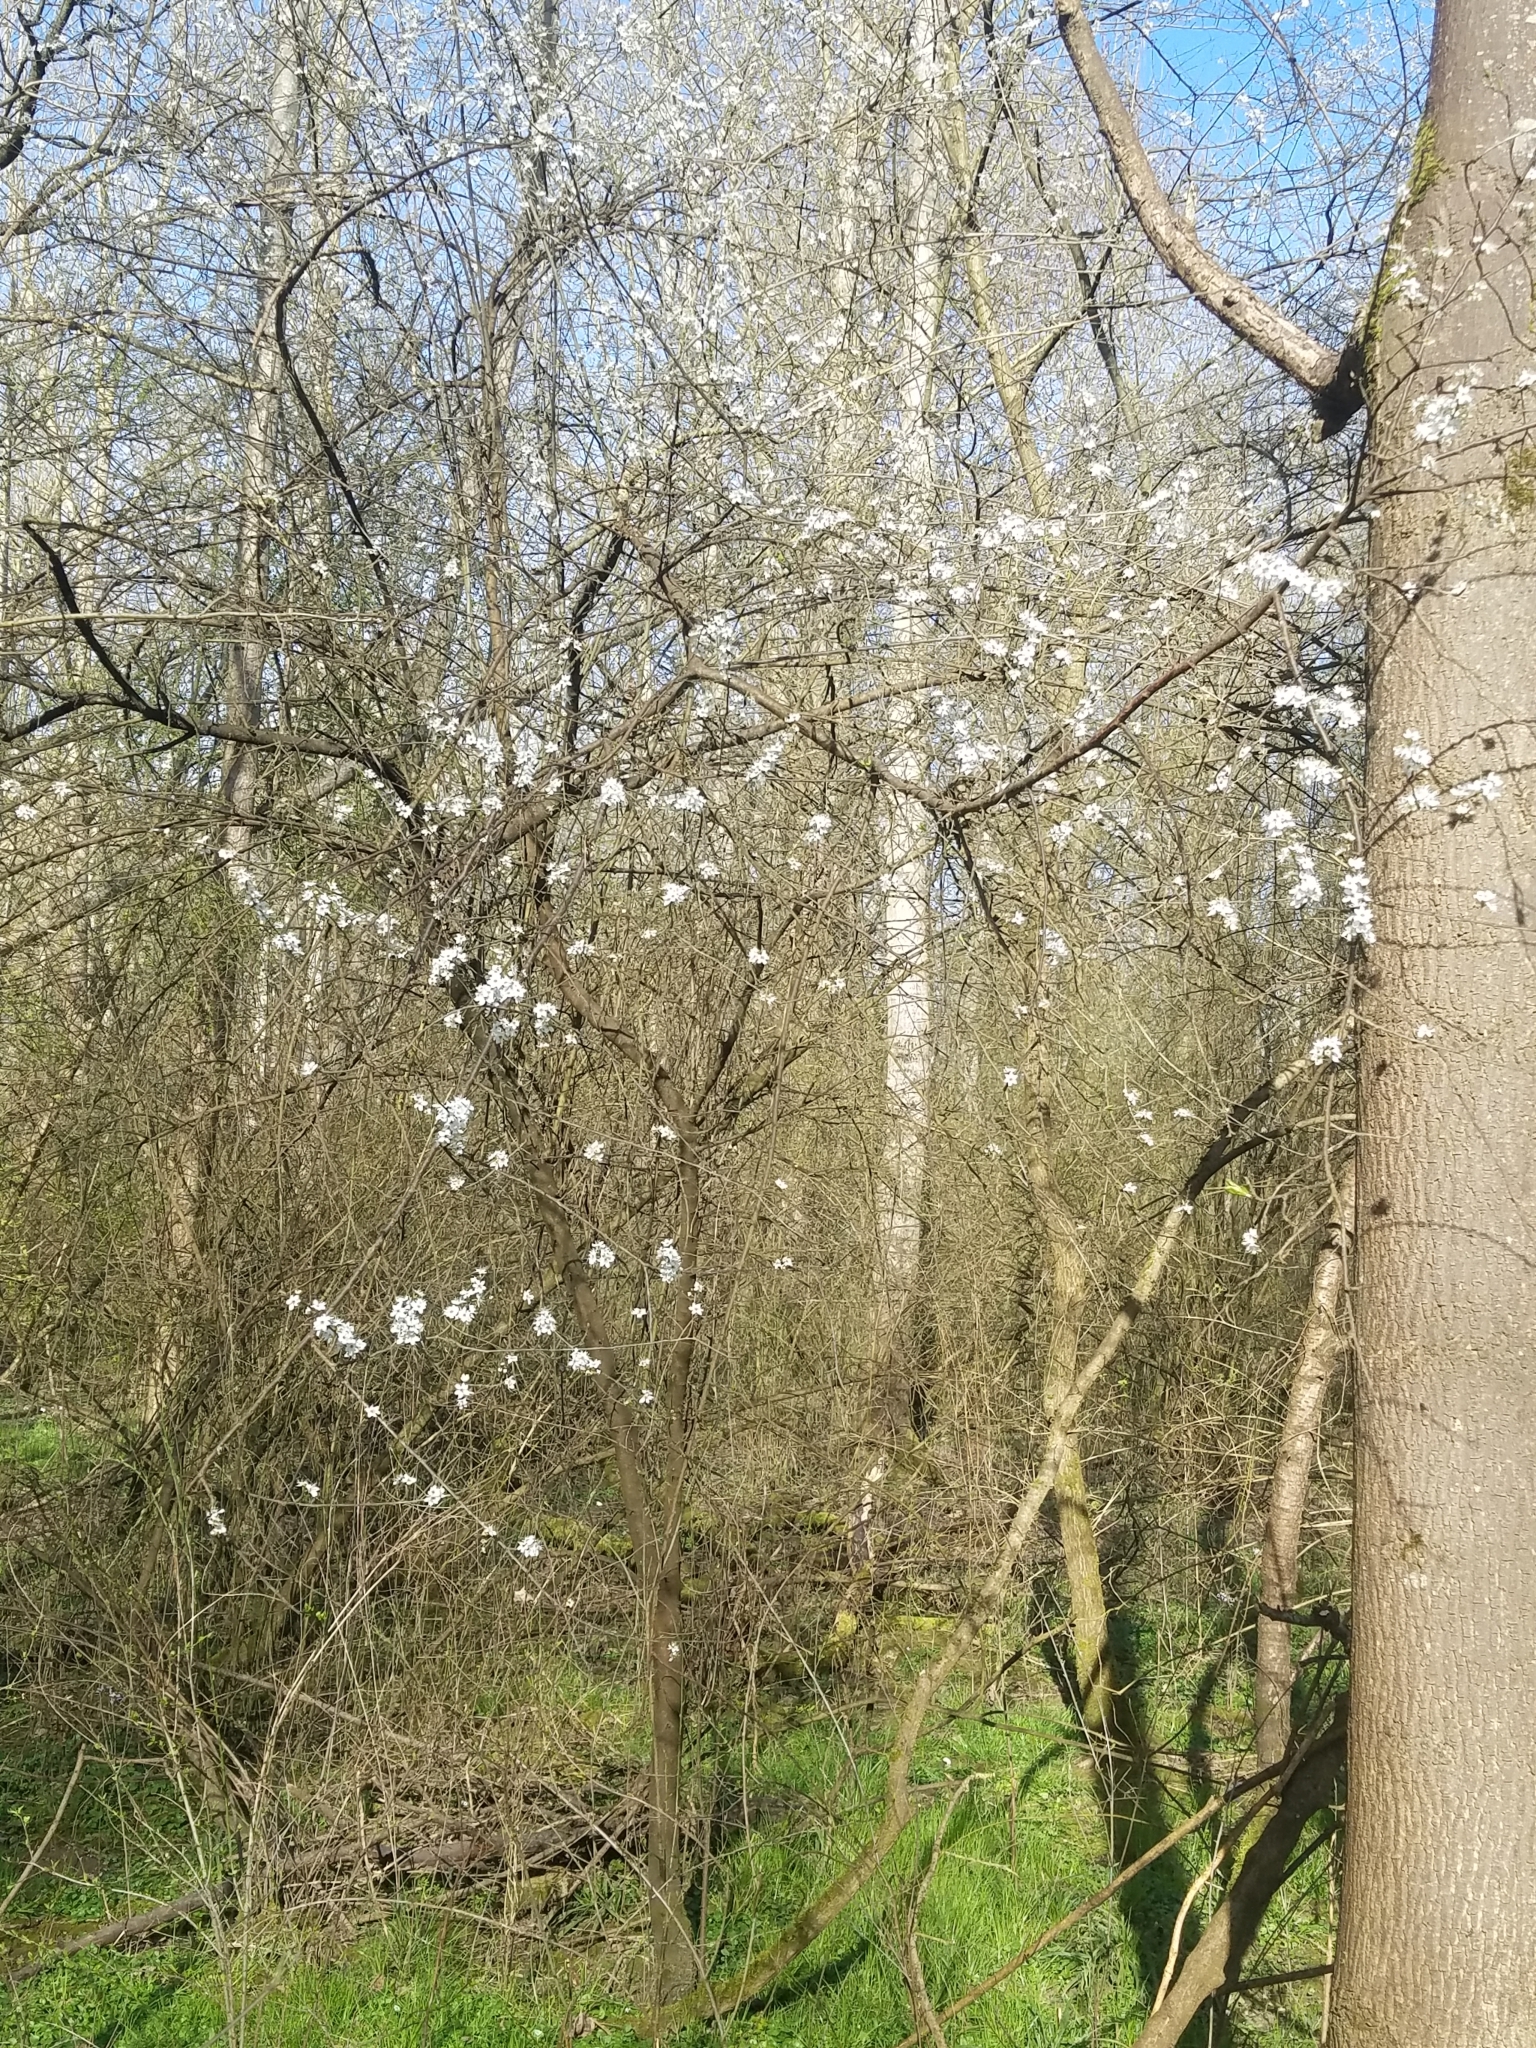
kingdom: Plantae
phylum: Tracheophyta
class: Magnoliopsida
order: Rosales
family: Rosaceae
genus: Prunus
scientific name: Prunus spinosa
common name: Blackthorn
